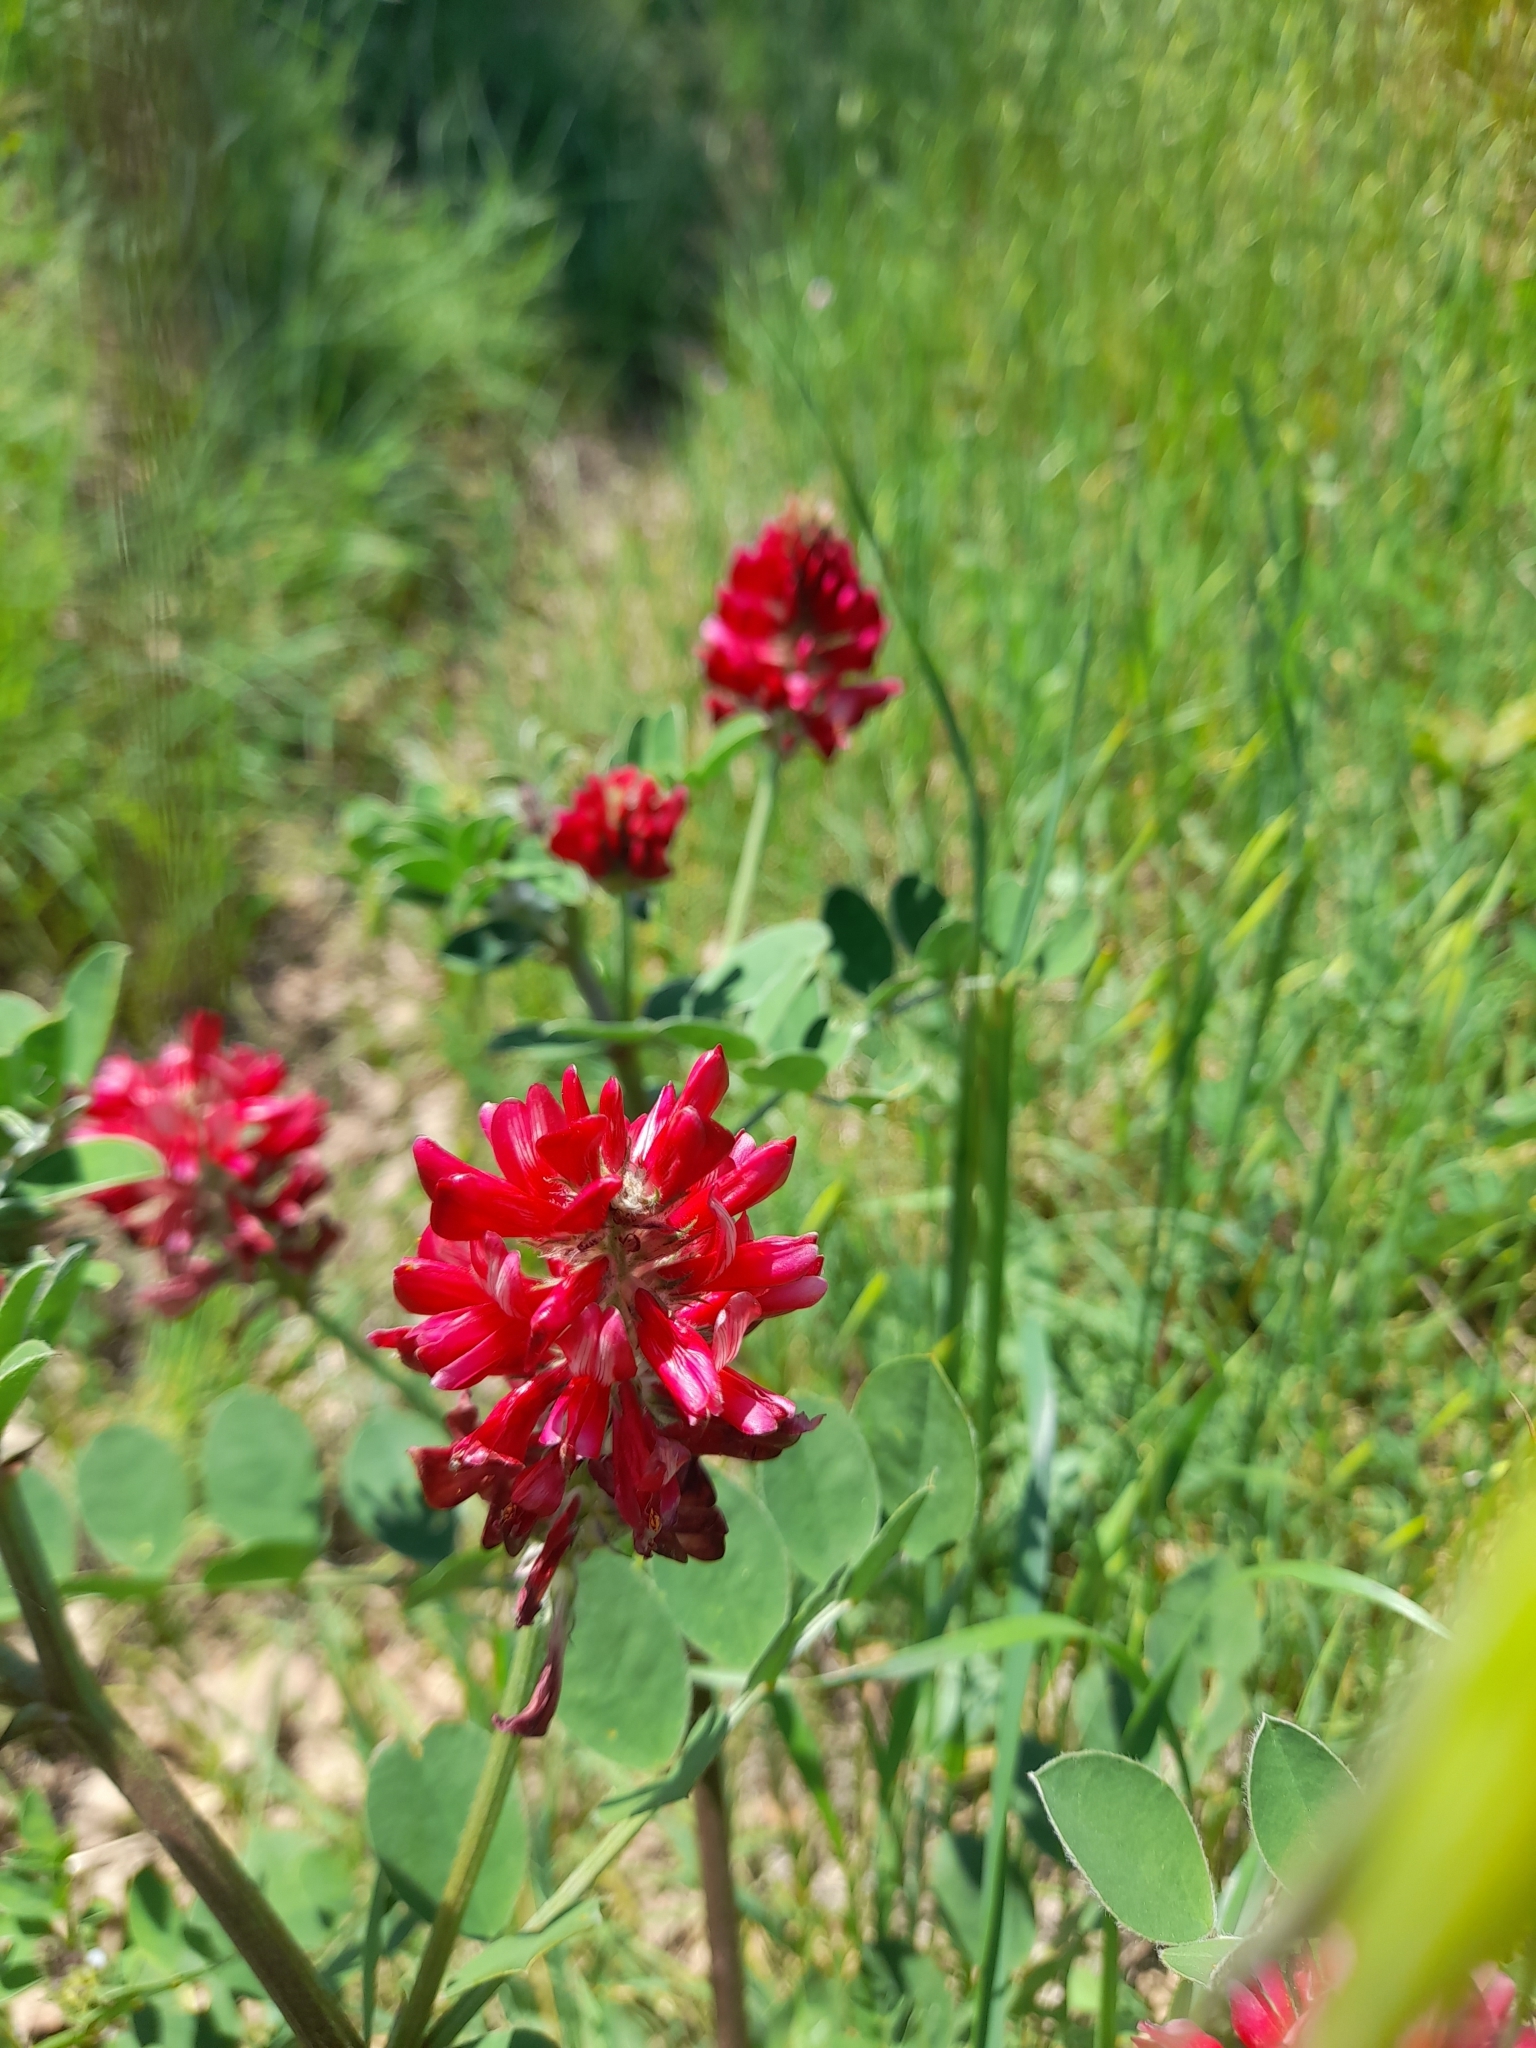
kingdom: Plantae
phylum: Tracheophyta
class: Magnoliopsida
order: Fabales
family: Fabaceae
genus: Sulla
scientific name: Sulla coronaria
